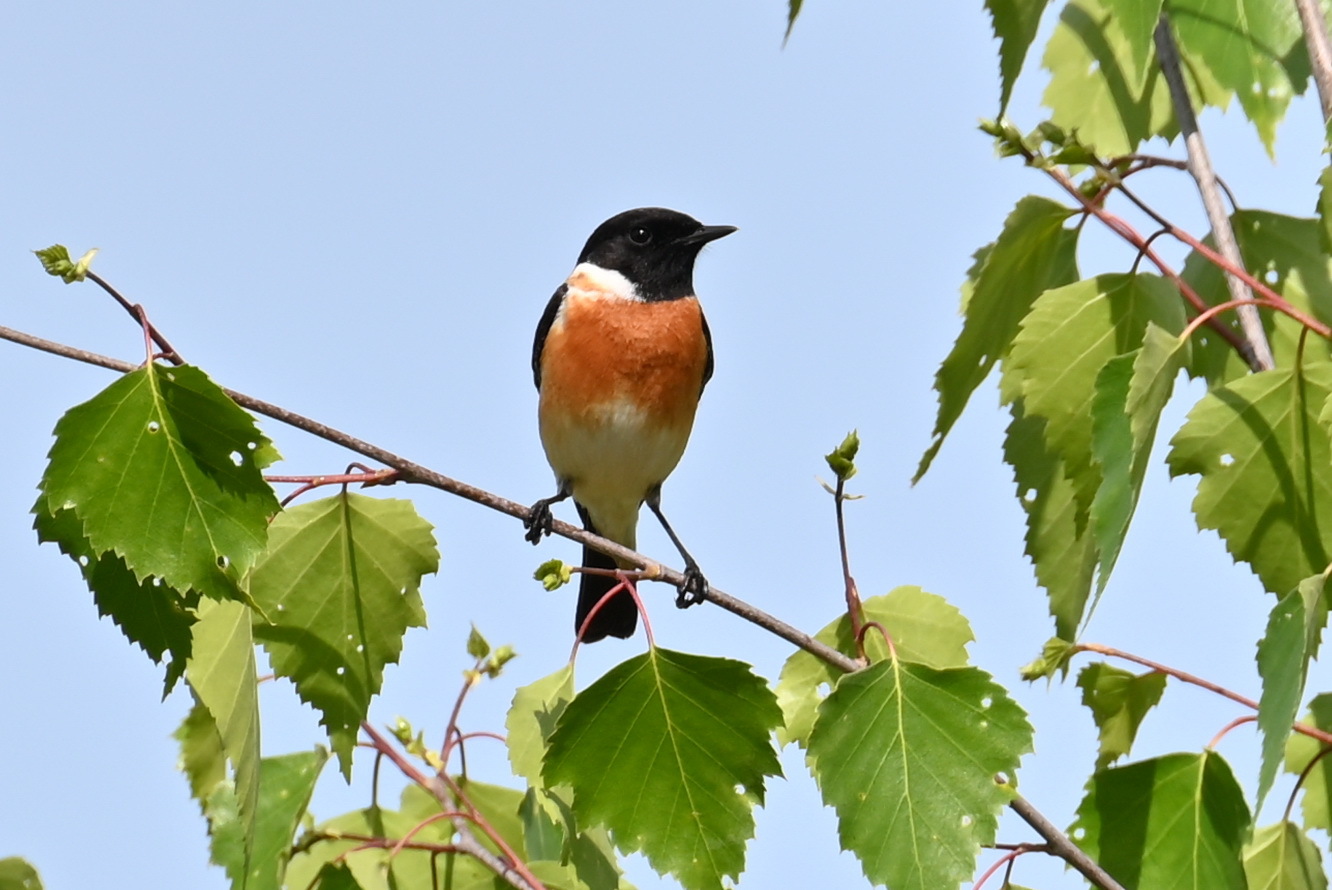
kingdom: Animalia
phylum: Chordata
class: Aves
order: Passeriformes
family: Muscicapidae
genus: Saxicola
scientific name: Saxicola maurus
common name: Siberian stonechat
